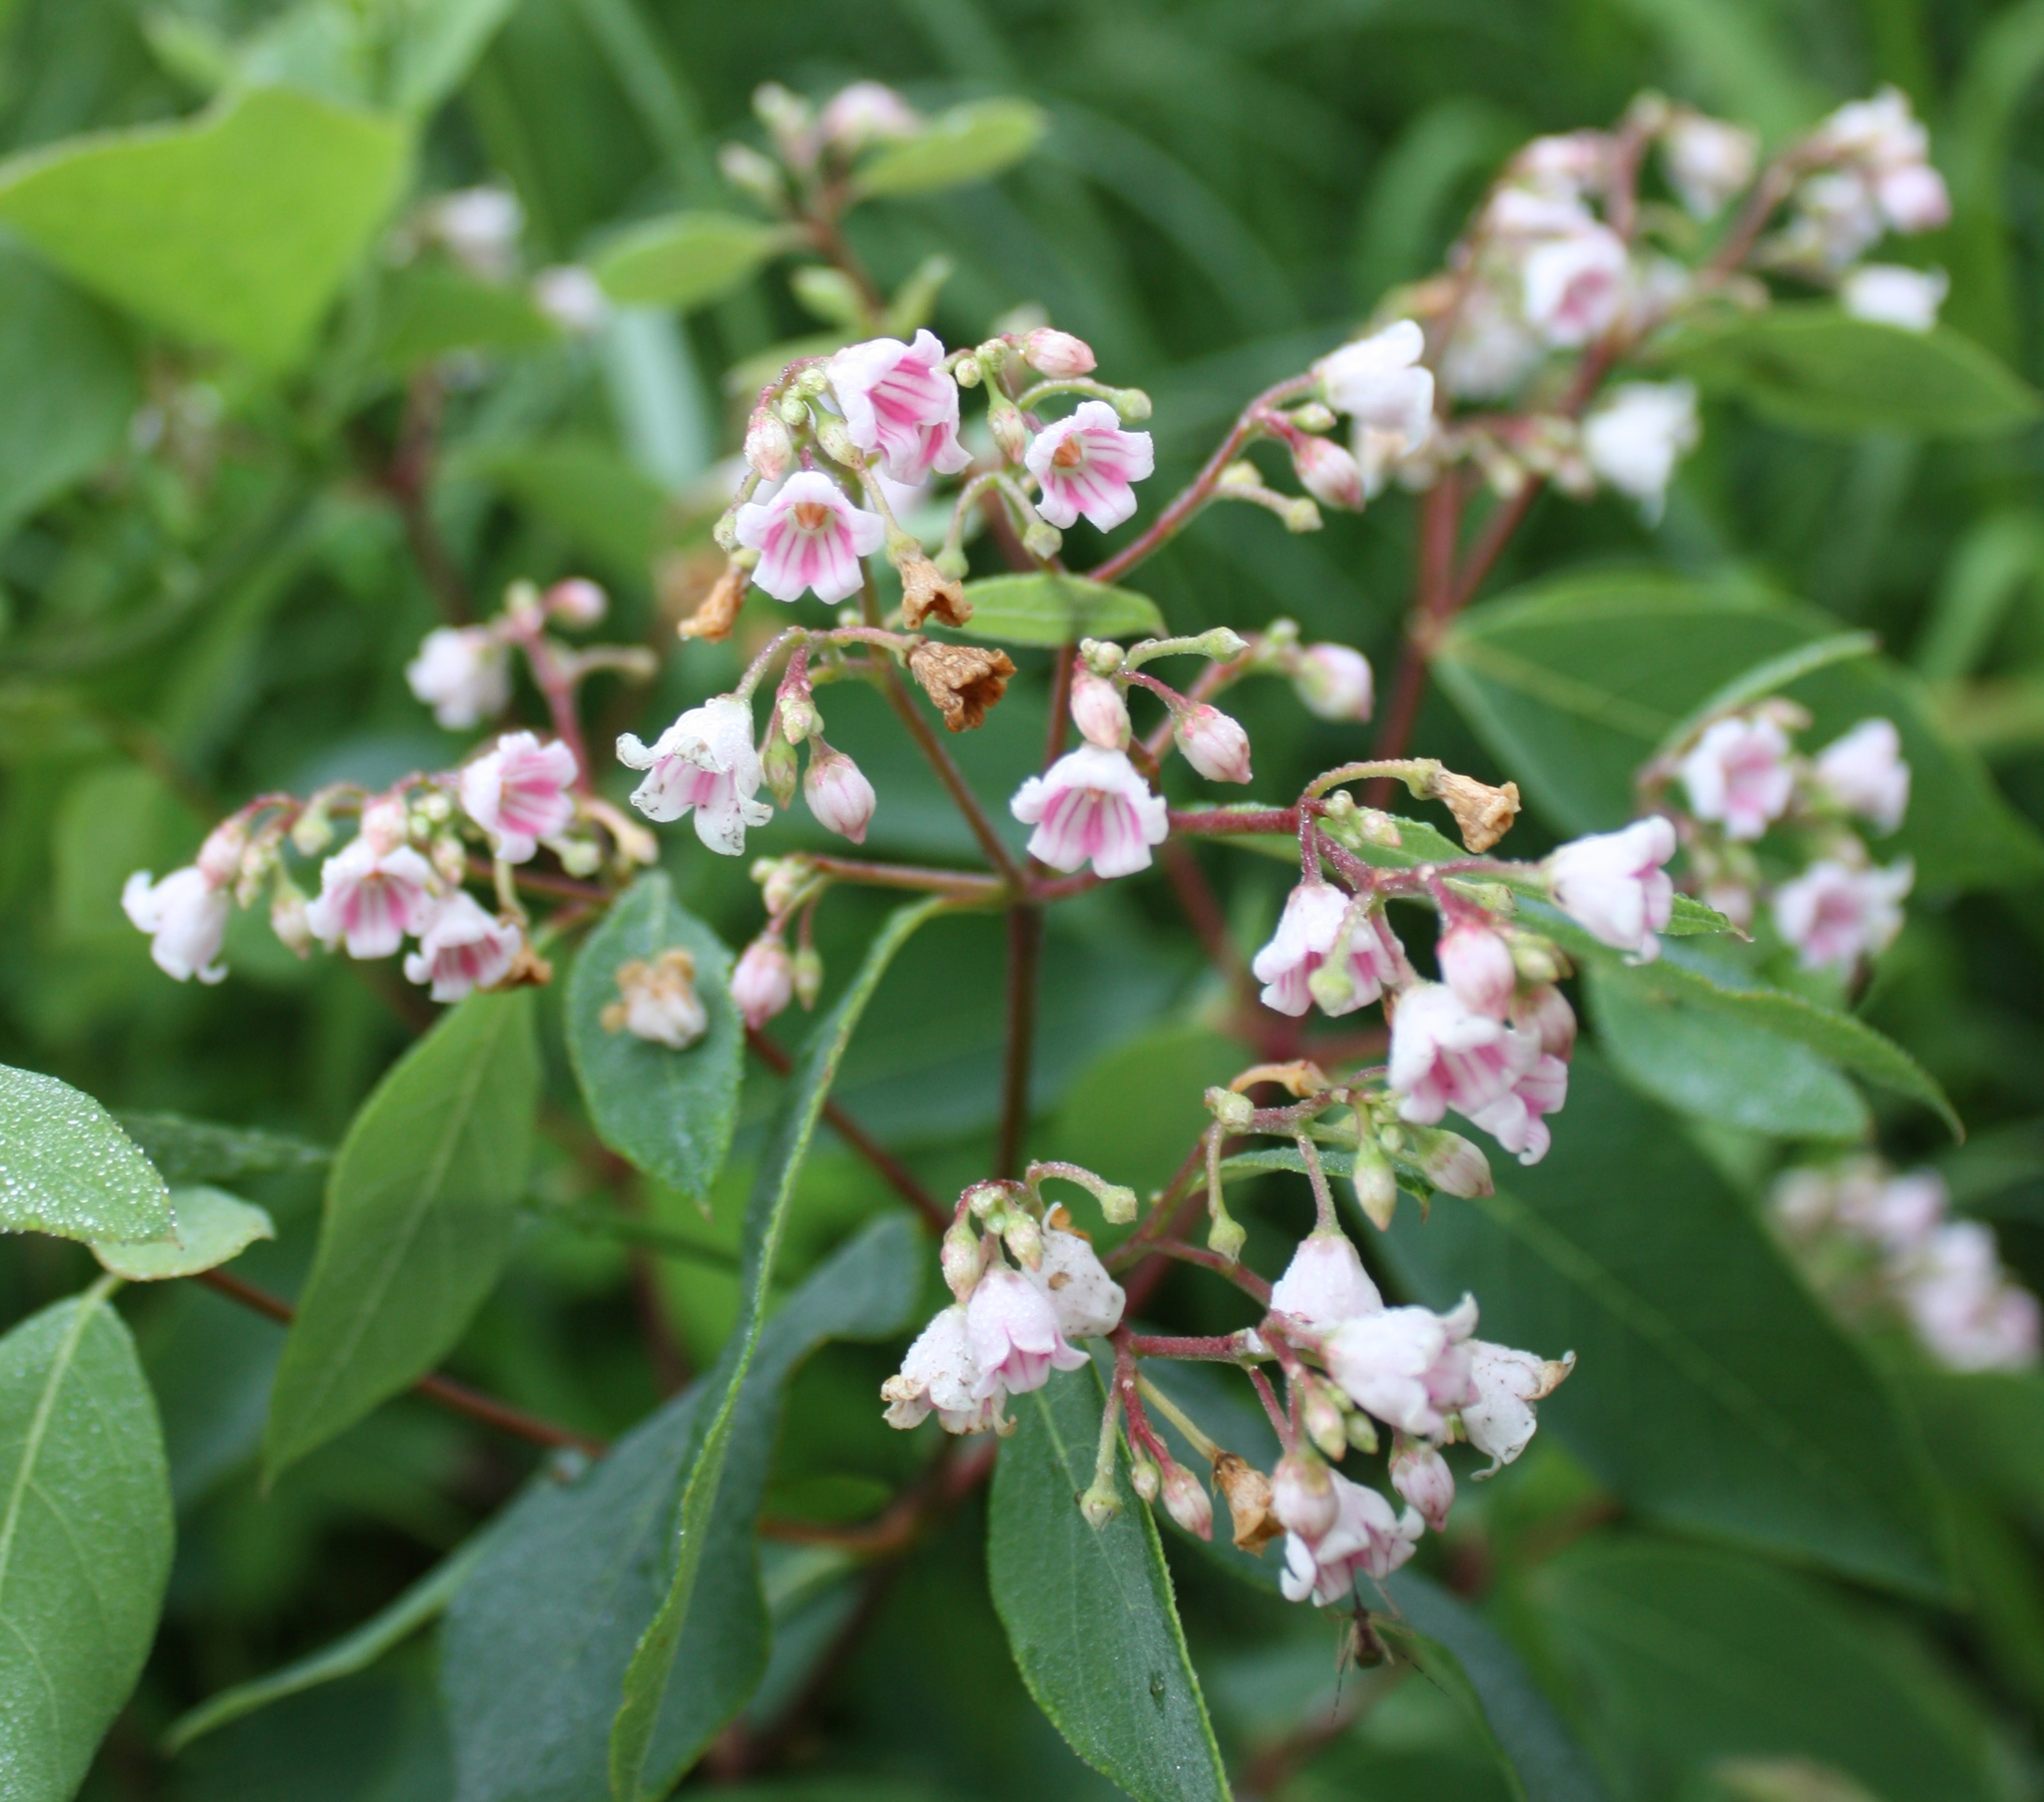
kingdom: Plantae
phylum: Tracheophyta
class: Magnoliopsida
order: Gentianales
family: Apocynaceae
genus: Apocynum
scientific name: Apocynum androsaemifolium
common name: Spreading dogbane
